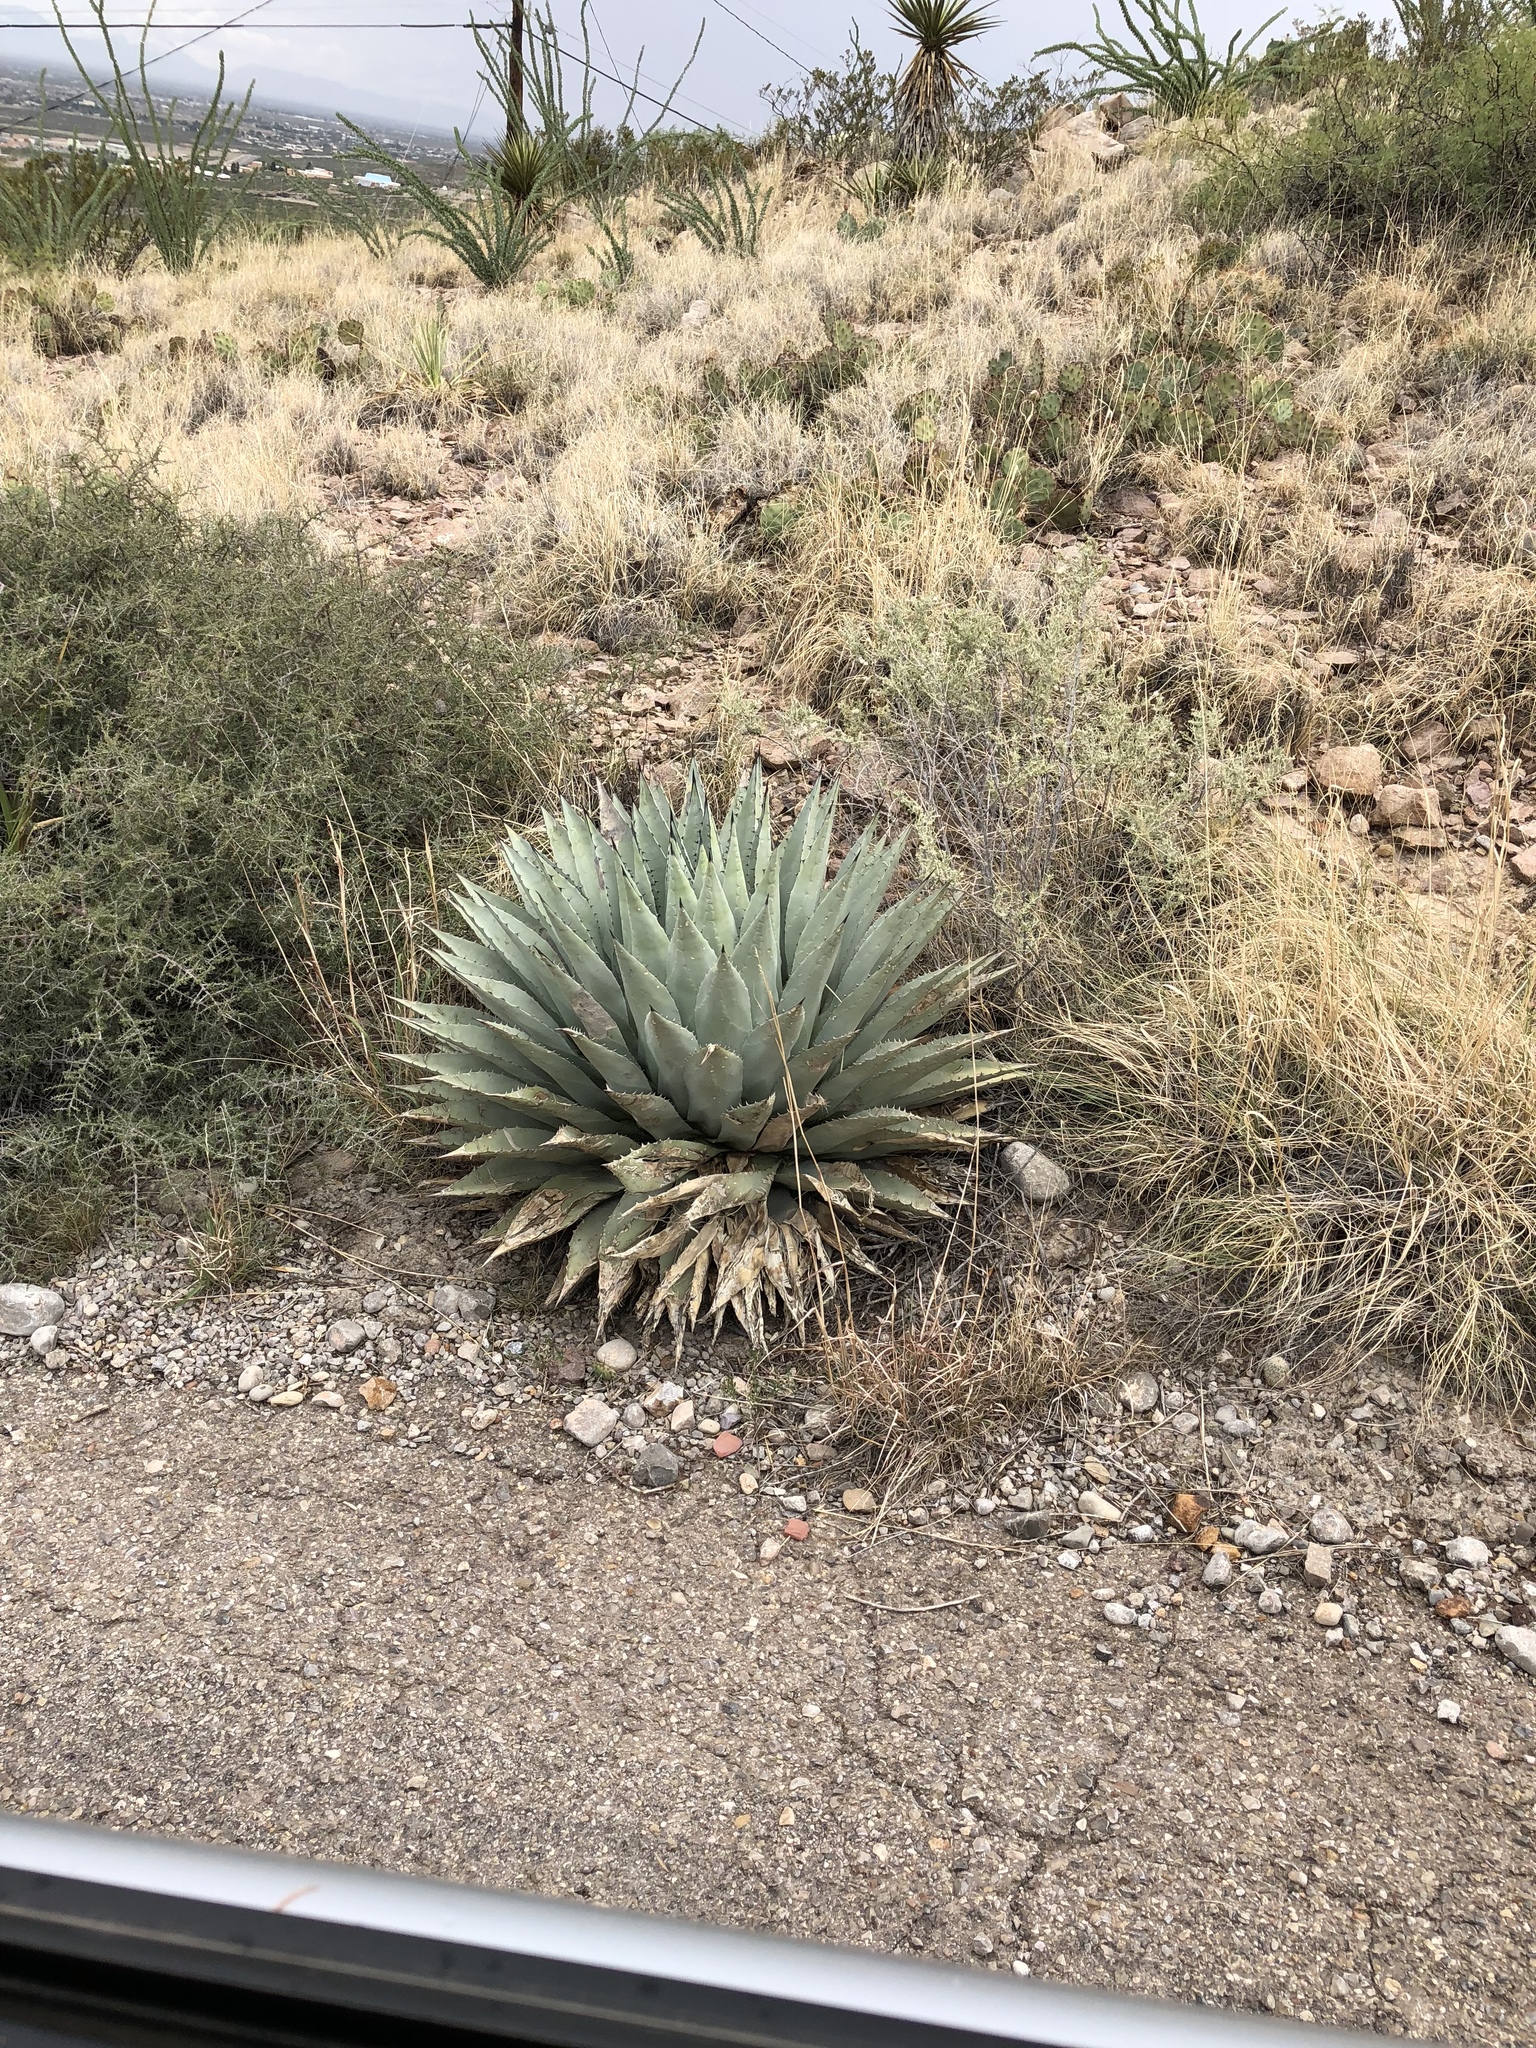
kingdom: Plantae
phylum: Tracheophyta
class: Liliopsida
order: Asparagales
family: Asparagaceae
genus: Agave
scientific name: Agave parryi
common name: Parry's agave
